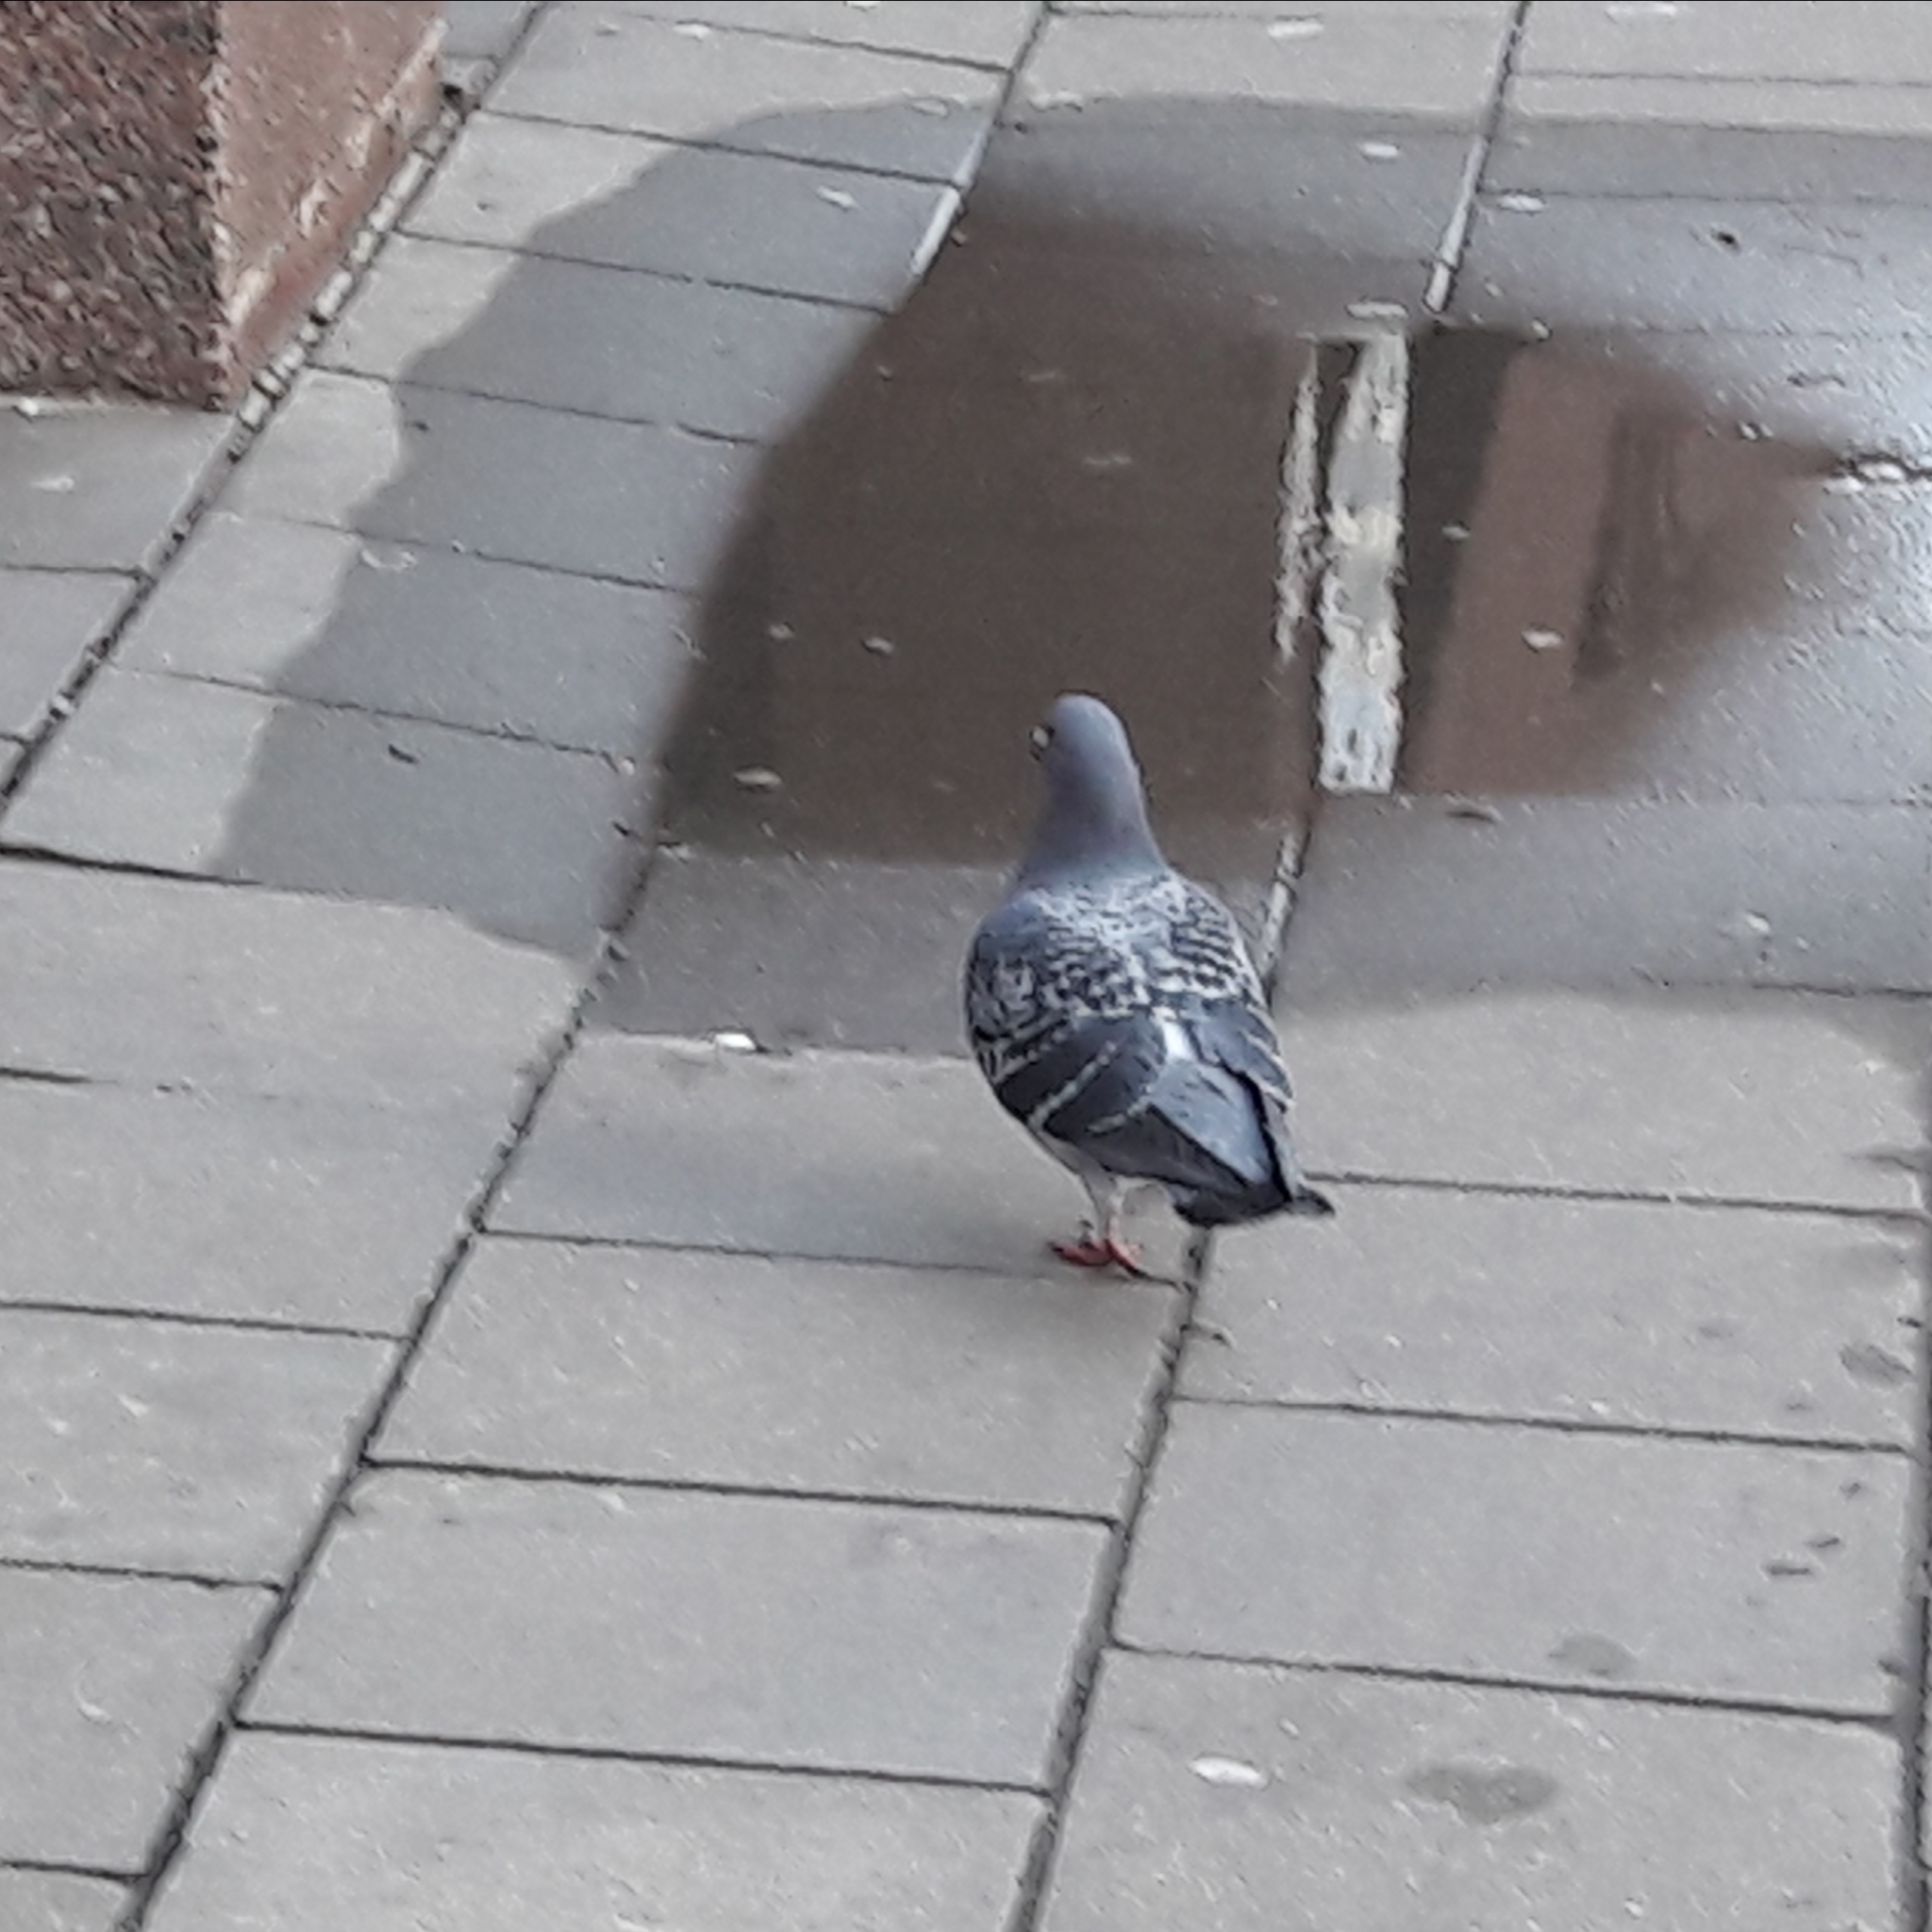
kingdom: Animalia
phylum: Chordata
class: Aves
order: Columbiformes
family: Columbidae
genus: Columba
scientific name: Columba livia
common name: Rock pigeon
